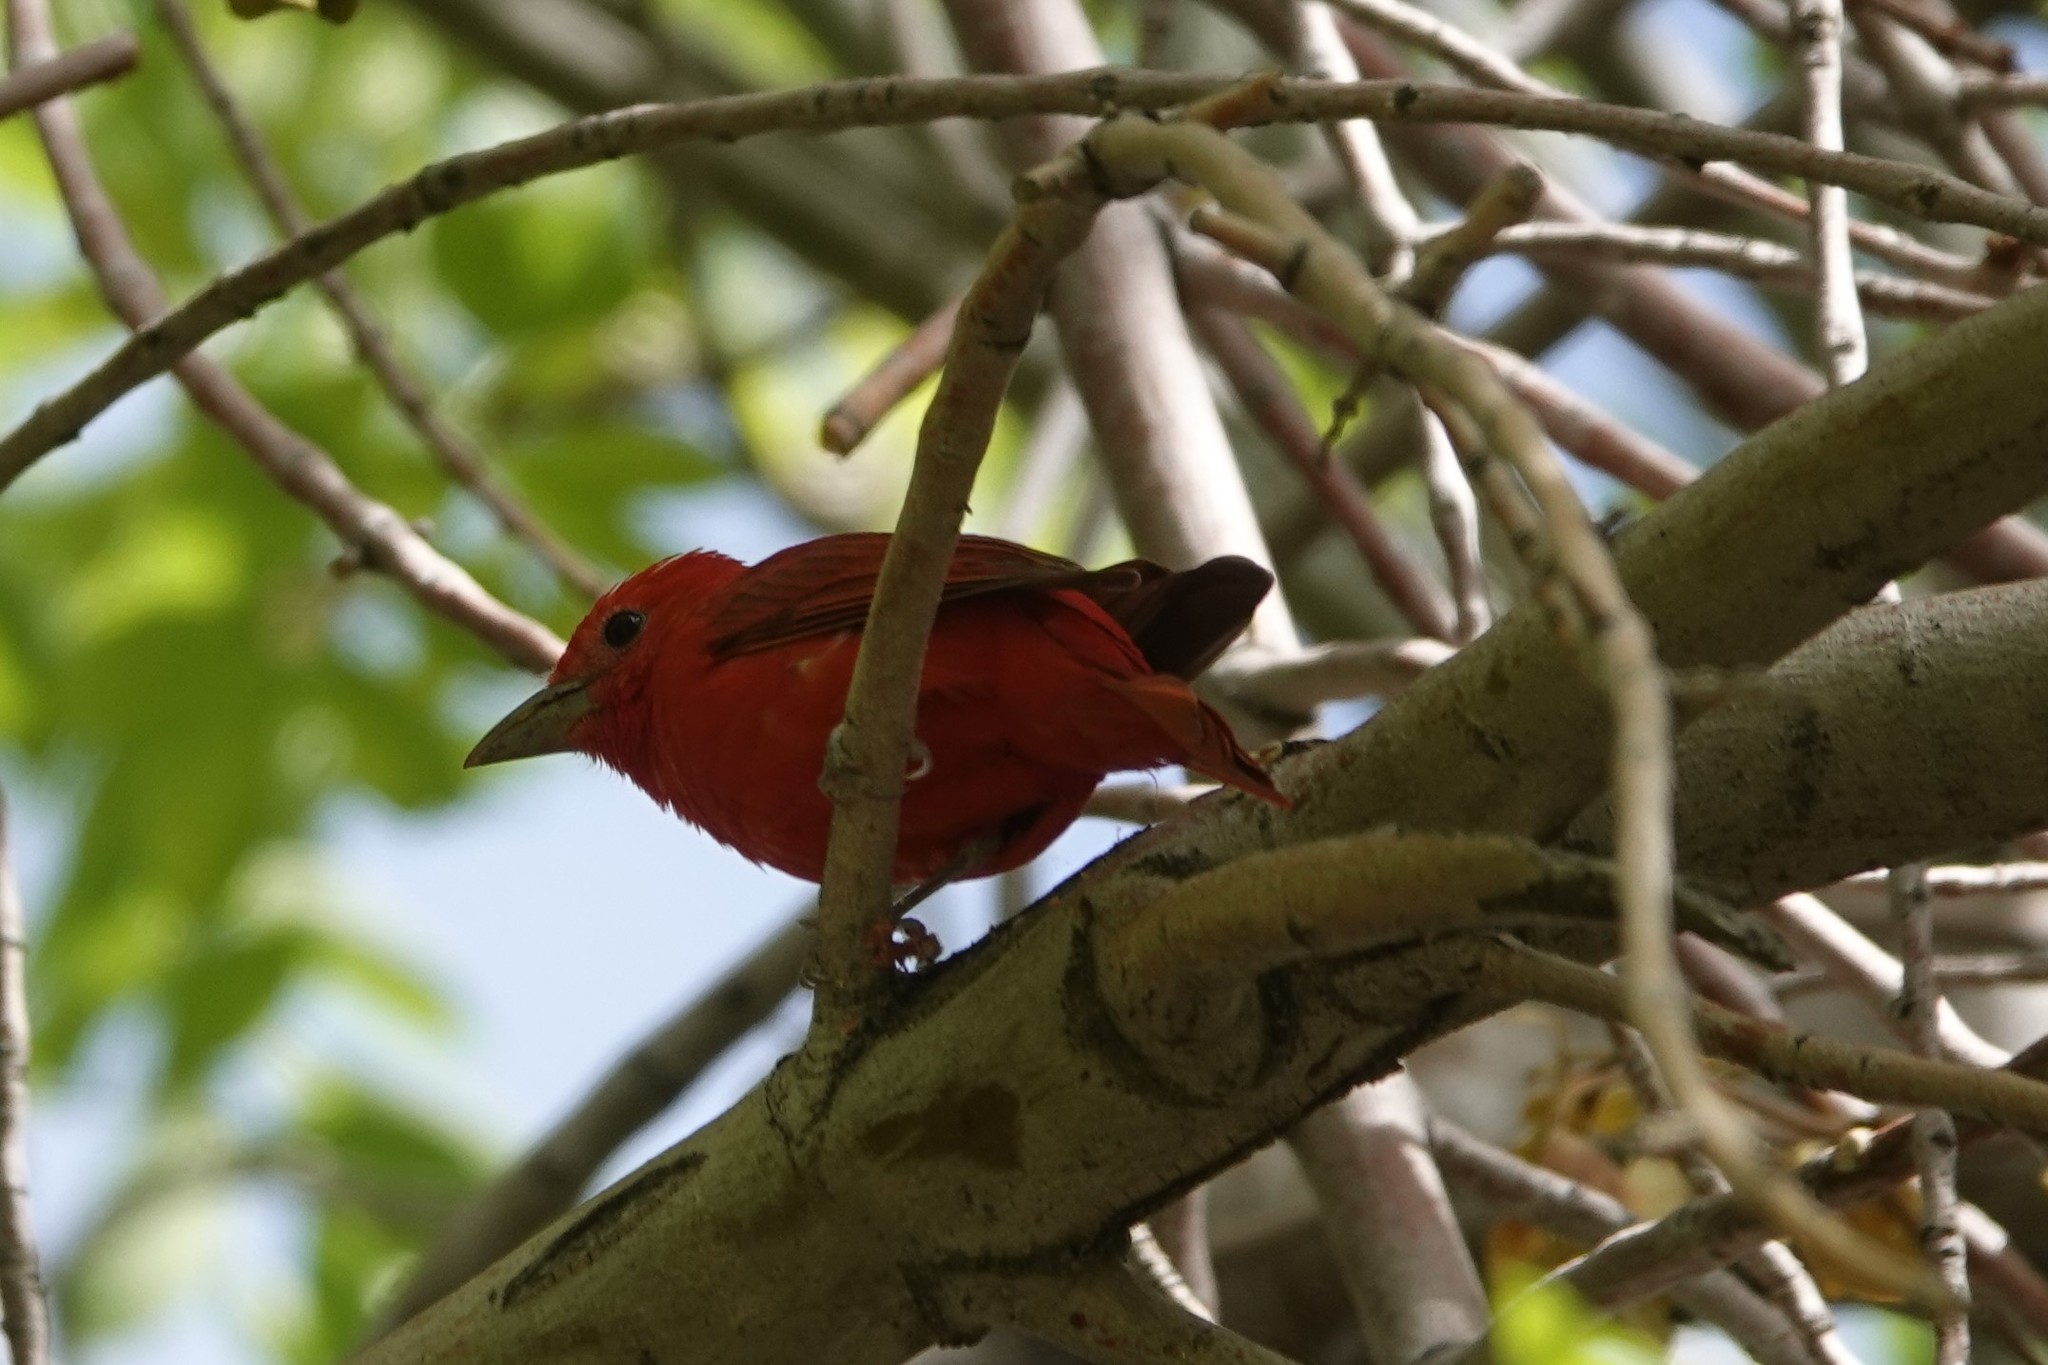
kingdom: Animalia
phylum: Chordata
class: Aves
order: Passeriformes
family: Cardinalidae
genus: Piranga
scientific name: Piranga rubra
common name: Summer tanager
